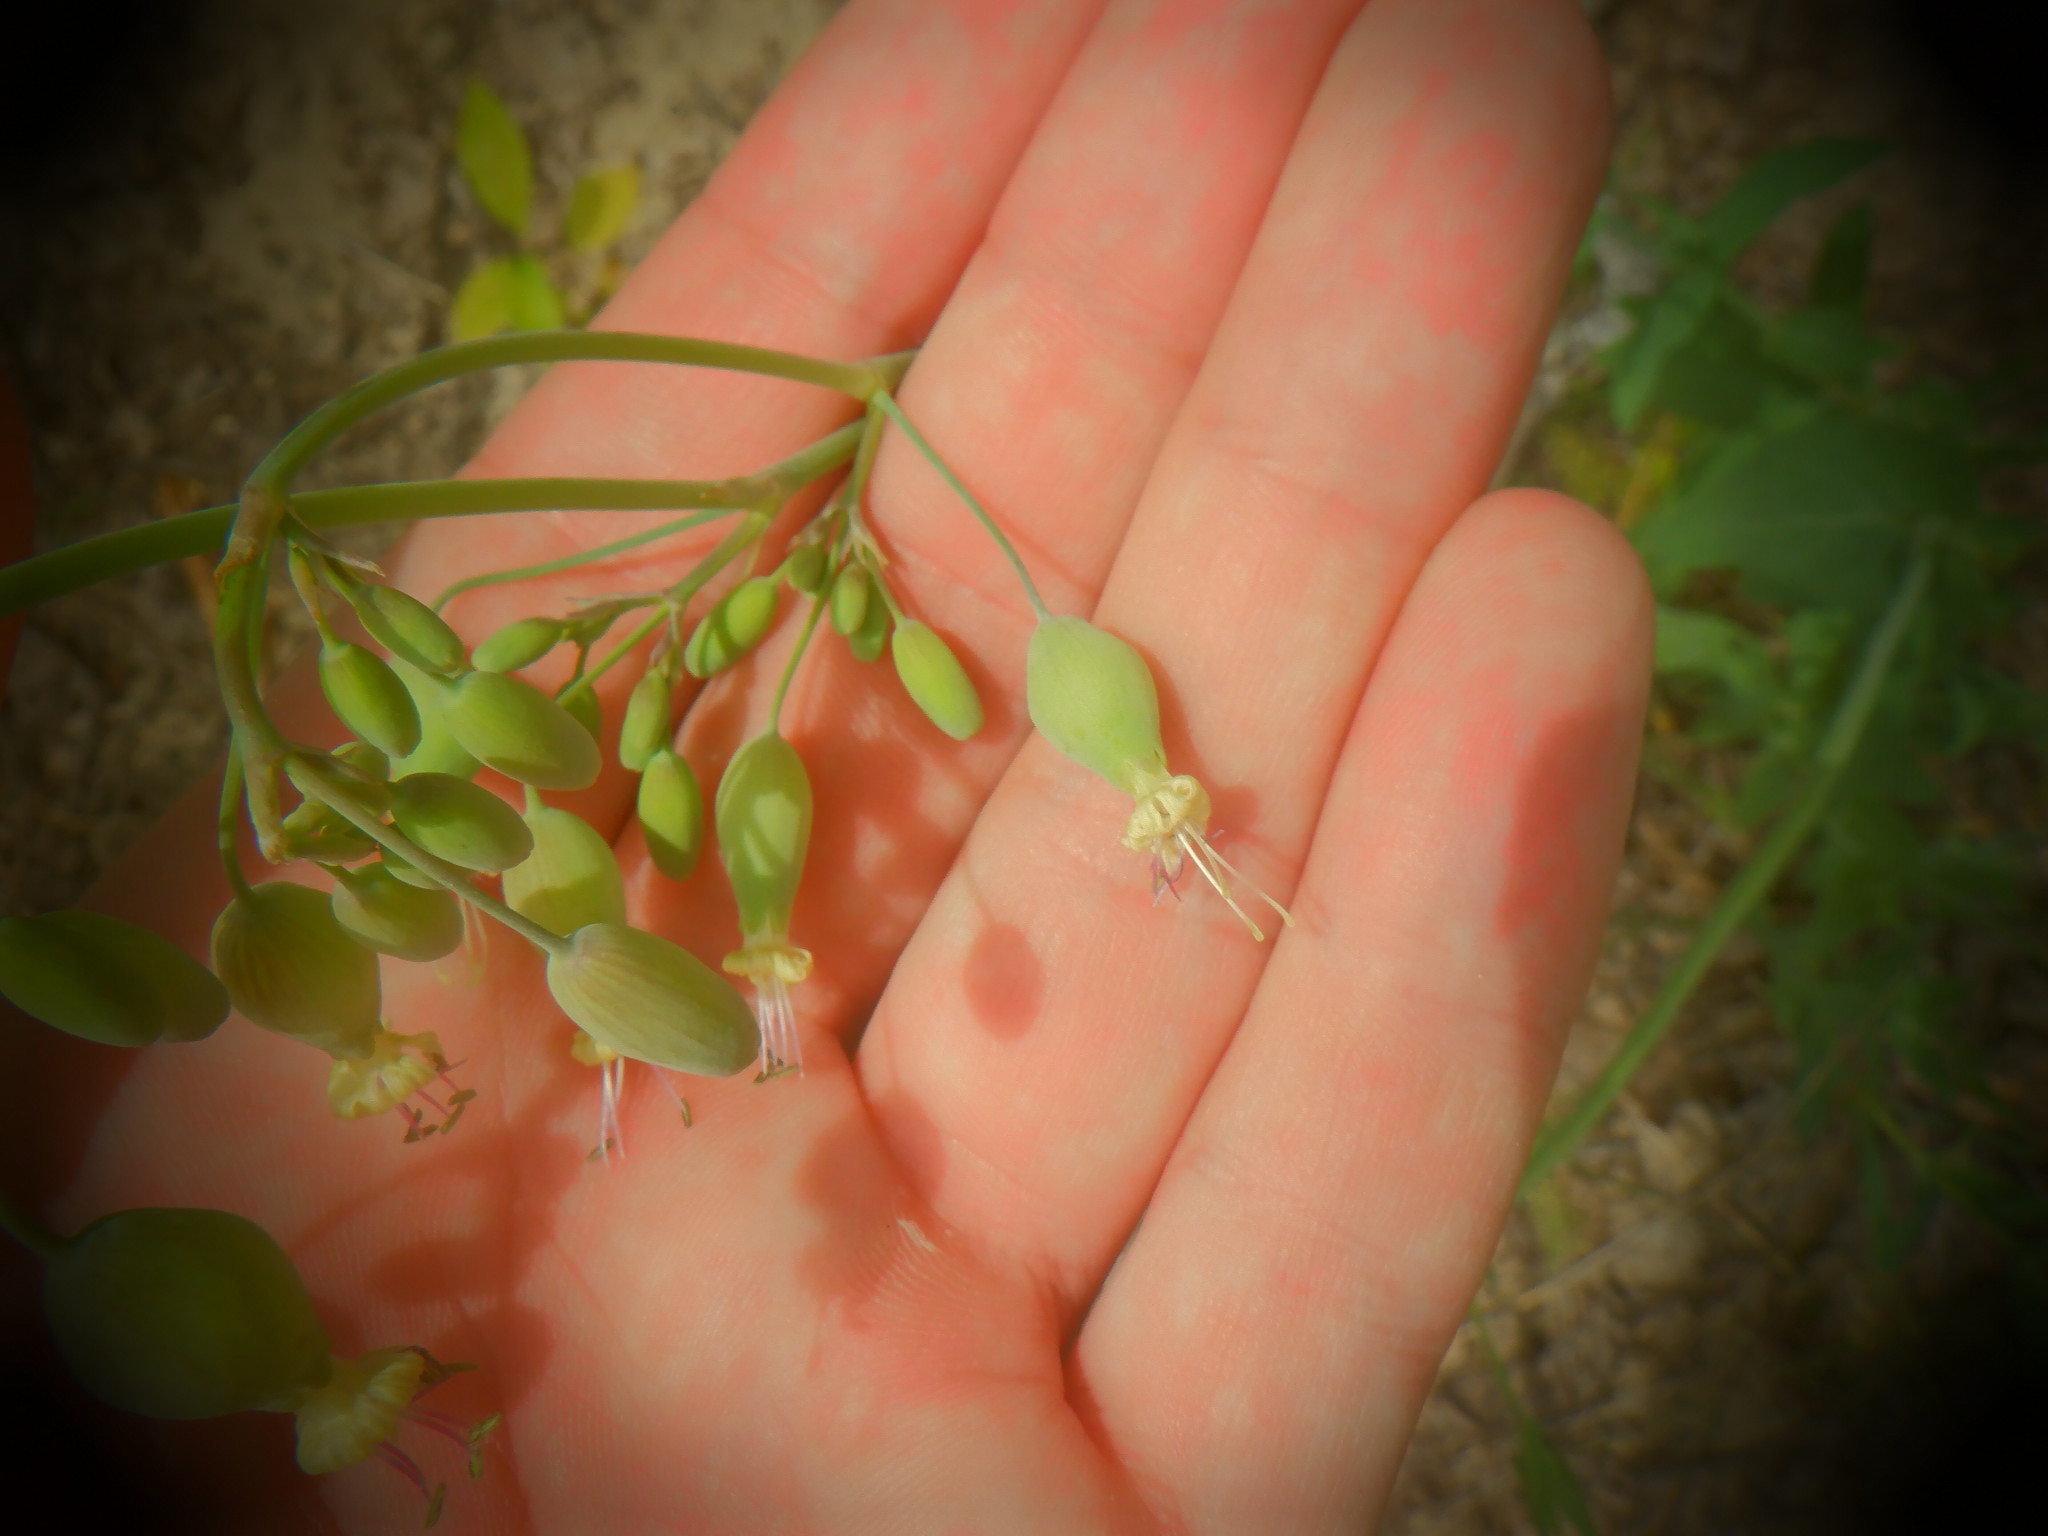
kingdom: Plantae
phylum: Tracheophyta
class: Magnoliopsida
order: Caryophyllales
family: Caryophyllaceae
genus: Silene
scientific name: Silene csereii
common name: Balkan catchfly
